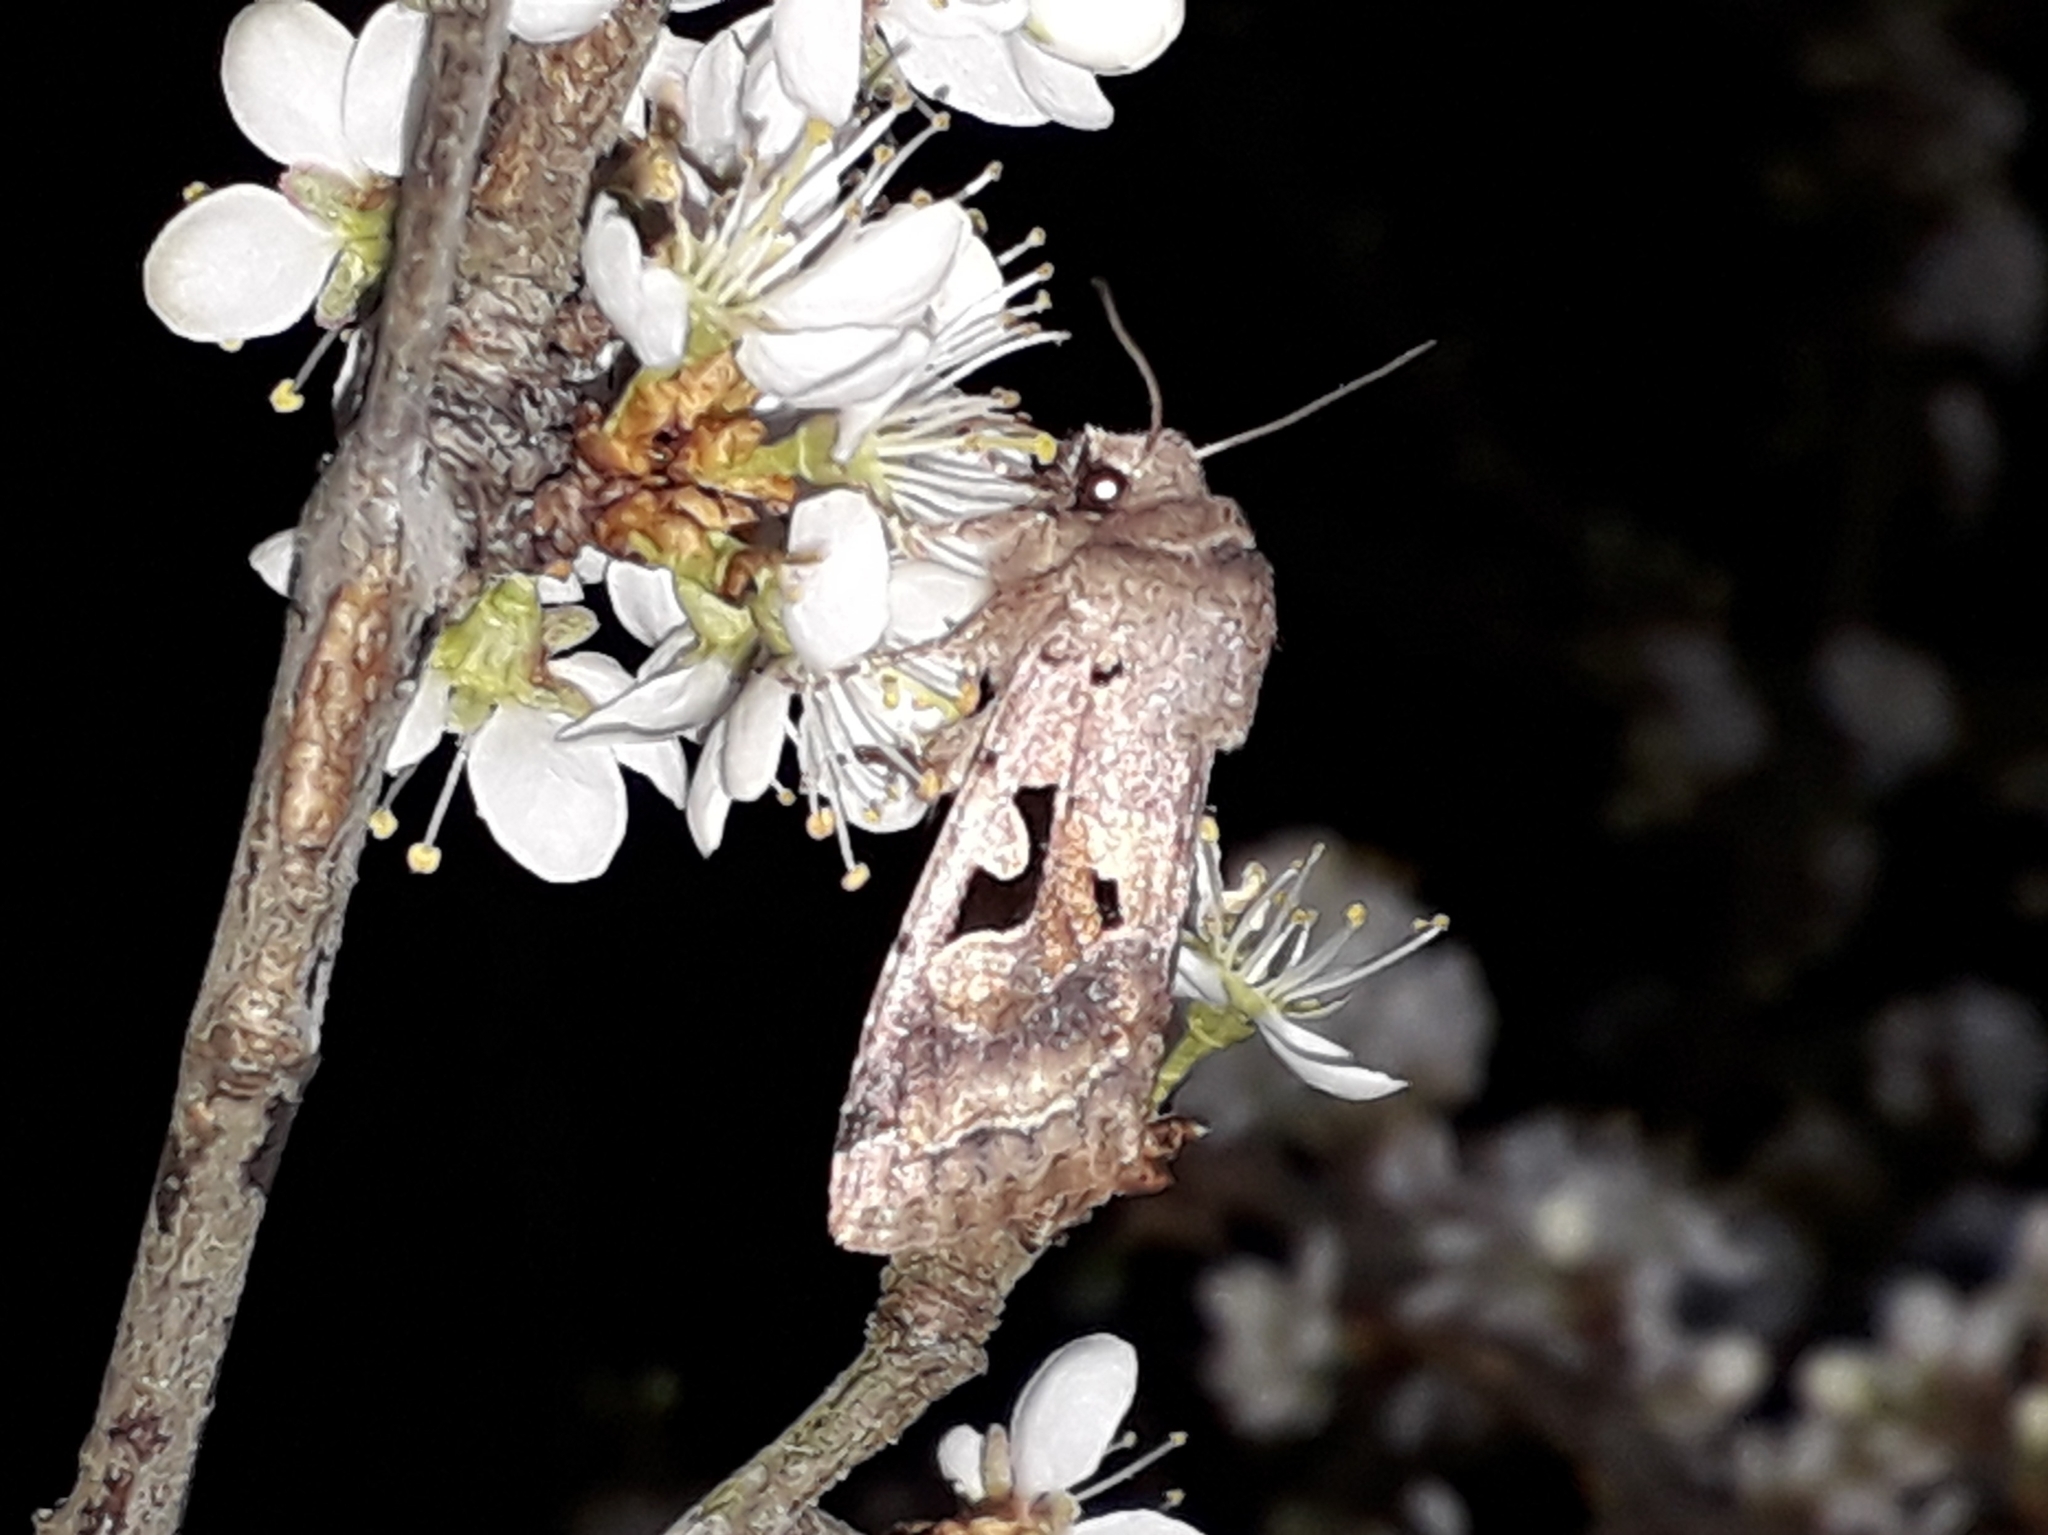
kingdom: Animalia
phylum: Arthropoda
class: Insecta
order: Lepidoptera
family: Noctuidae
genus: Orthosia
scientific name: Orthosia gothica
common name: Hebrew character
